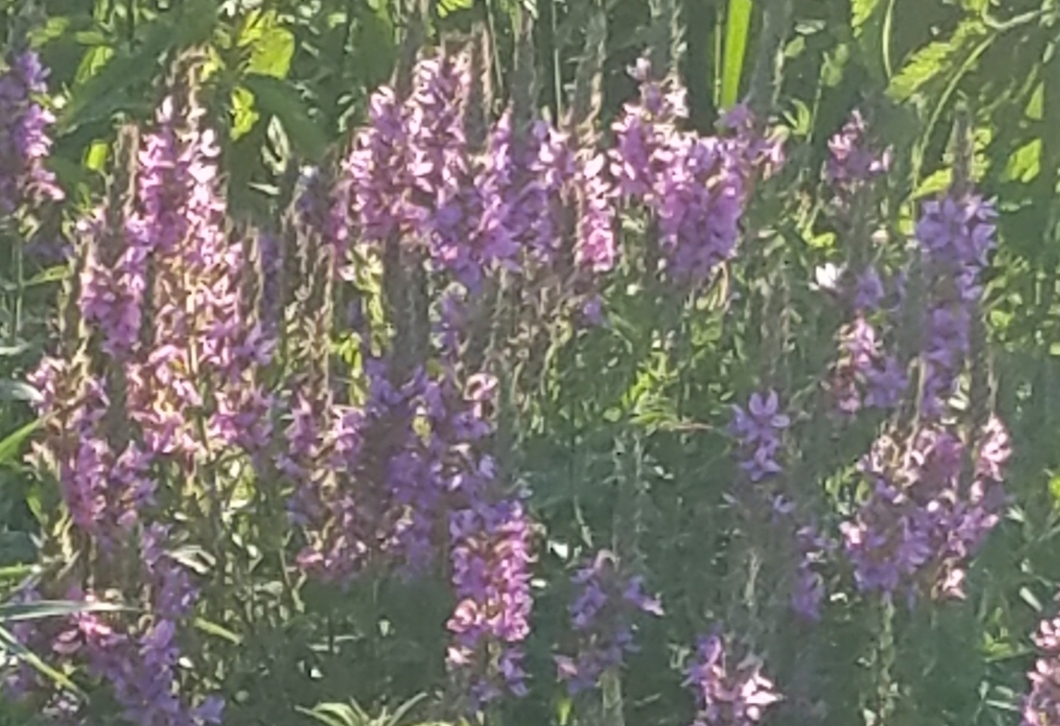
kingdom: Plantae
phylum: Tracheophyta
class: Magnoliopsida
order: Myrtales
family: Lythraceae
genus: Lythrum
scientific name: Lythrum salicaria
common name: Purple loosestrife
